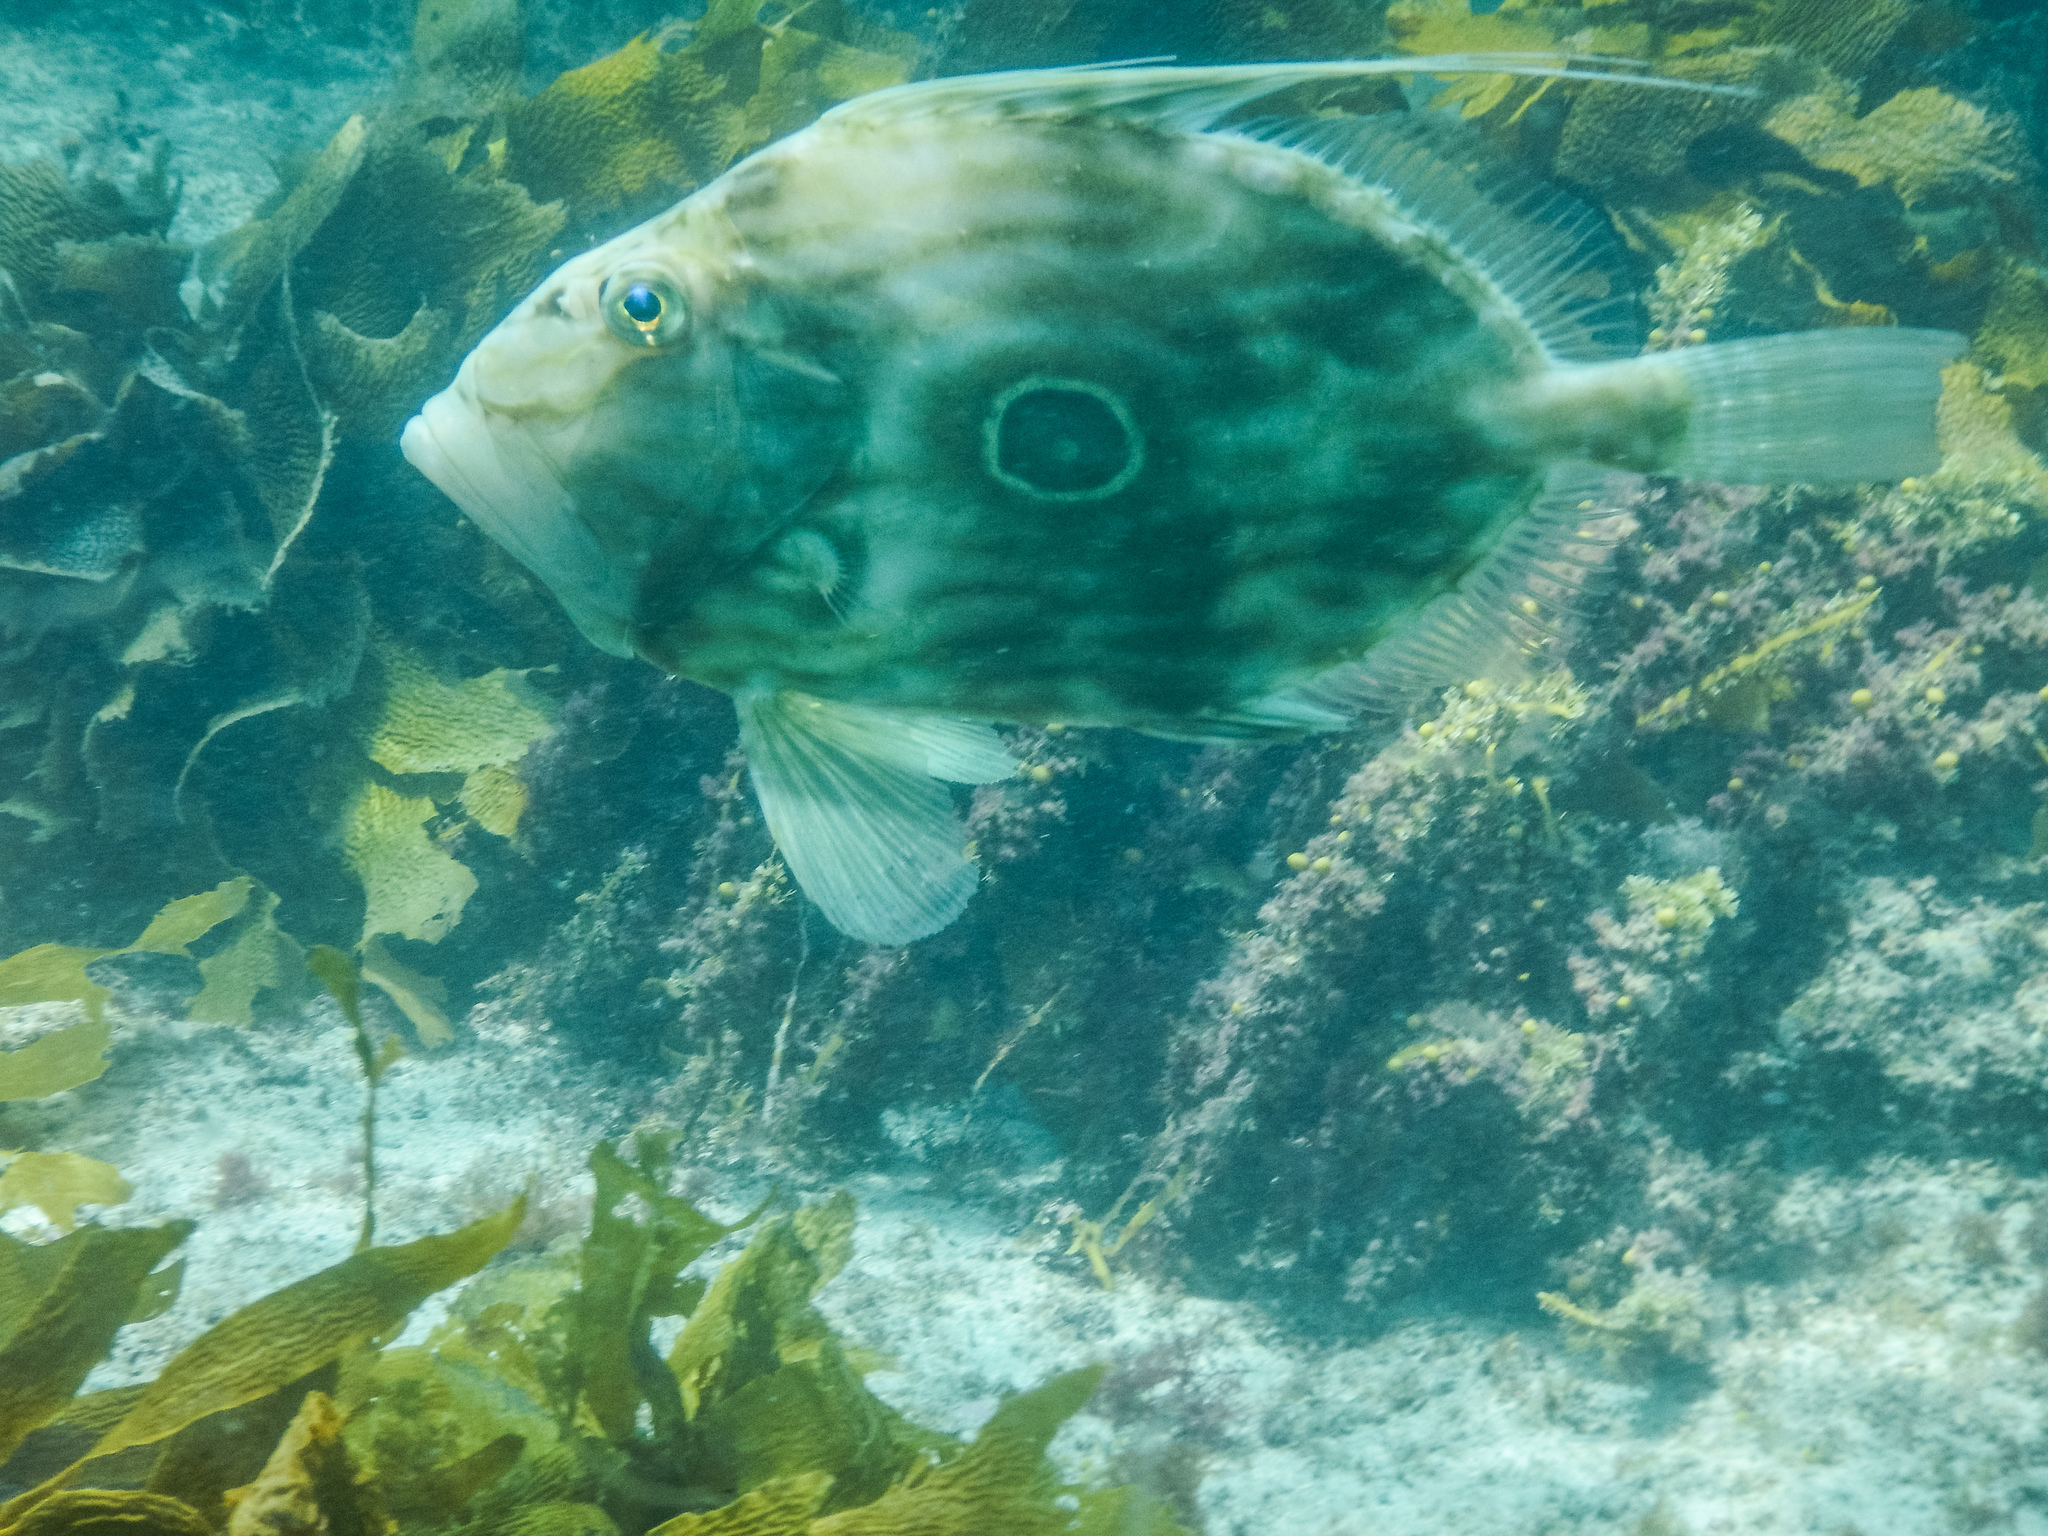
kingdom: Animalia
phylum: Chordata
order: Zeiformes
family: Zeidae
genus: Zeus
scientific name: Zeus faber
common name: John dory
